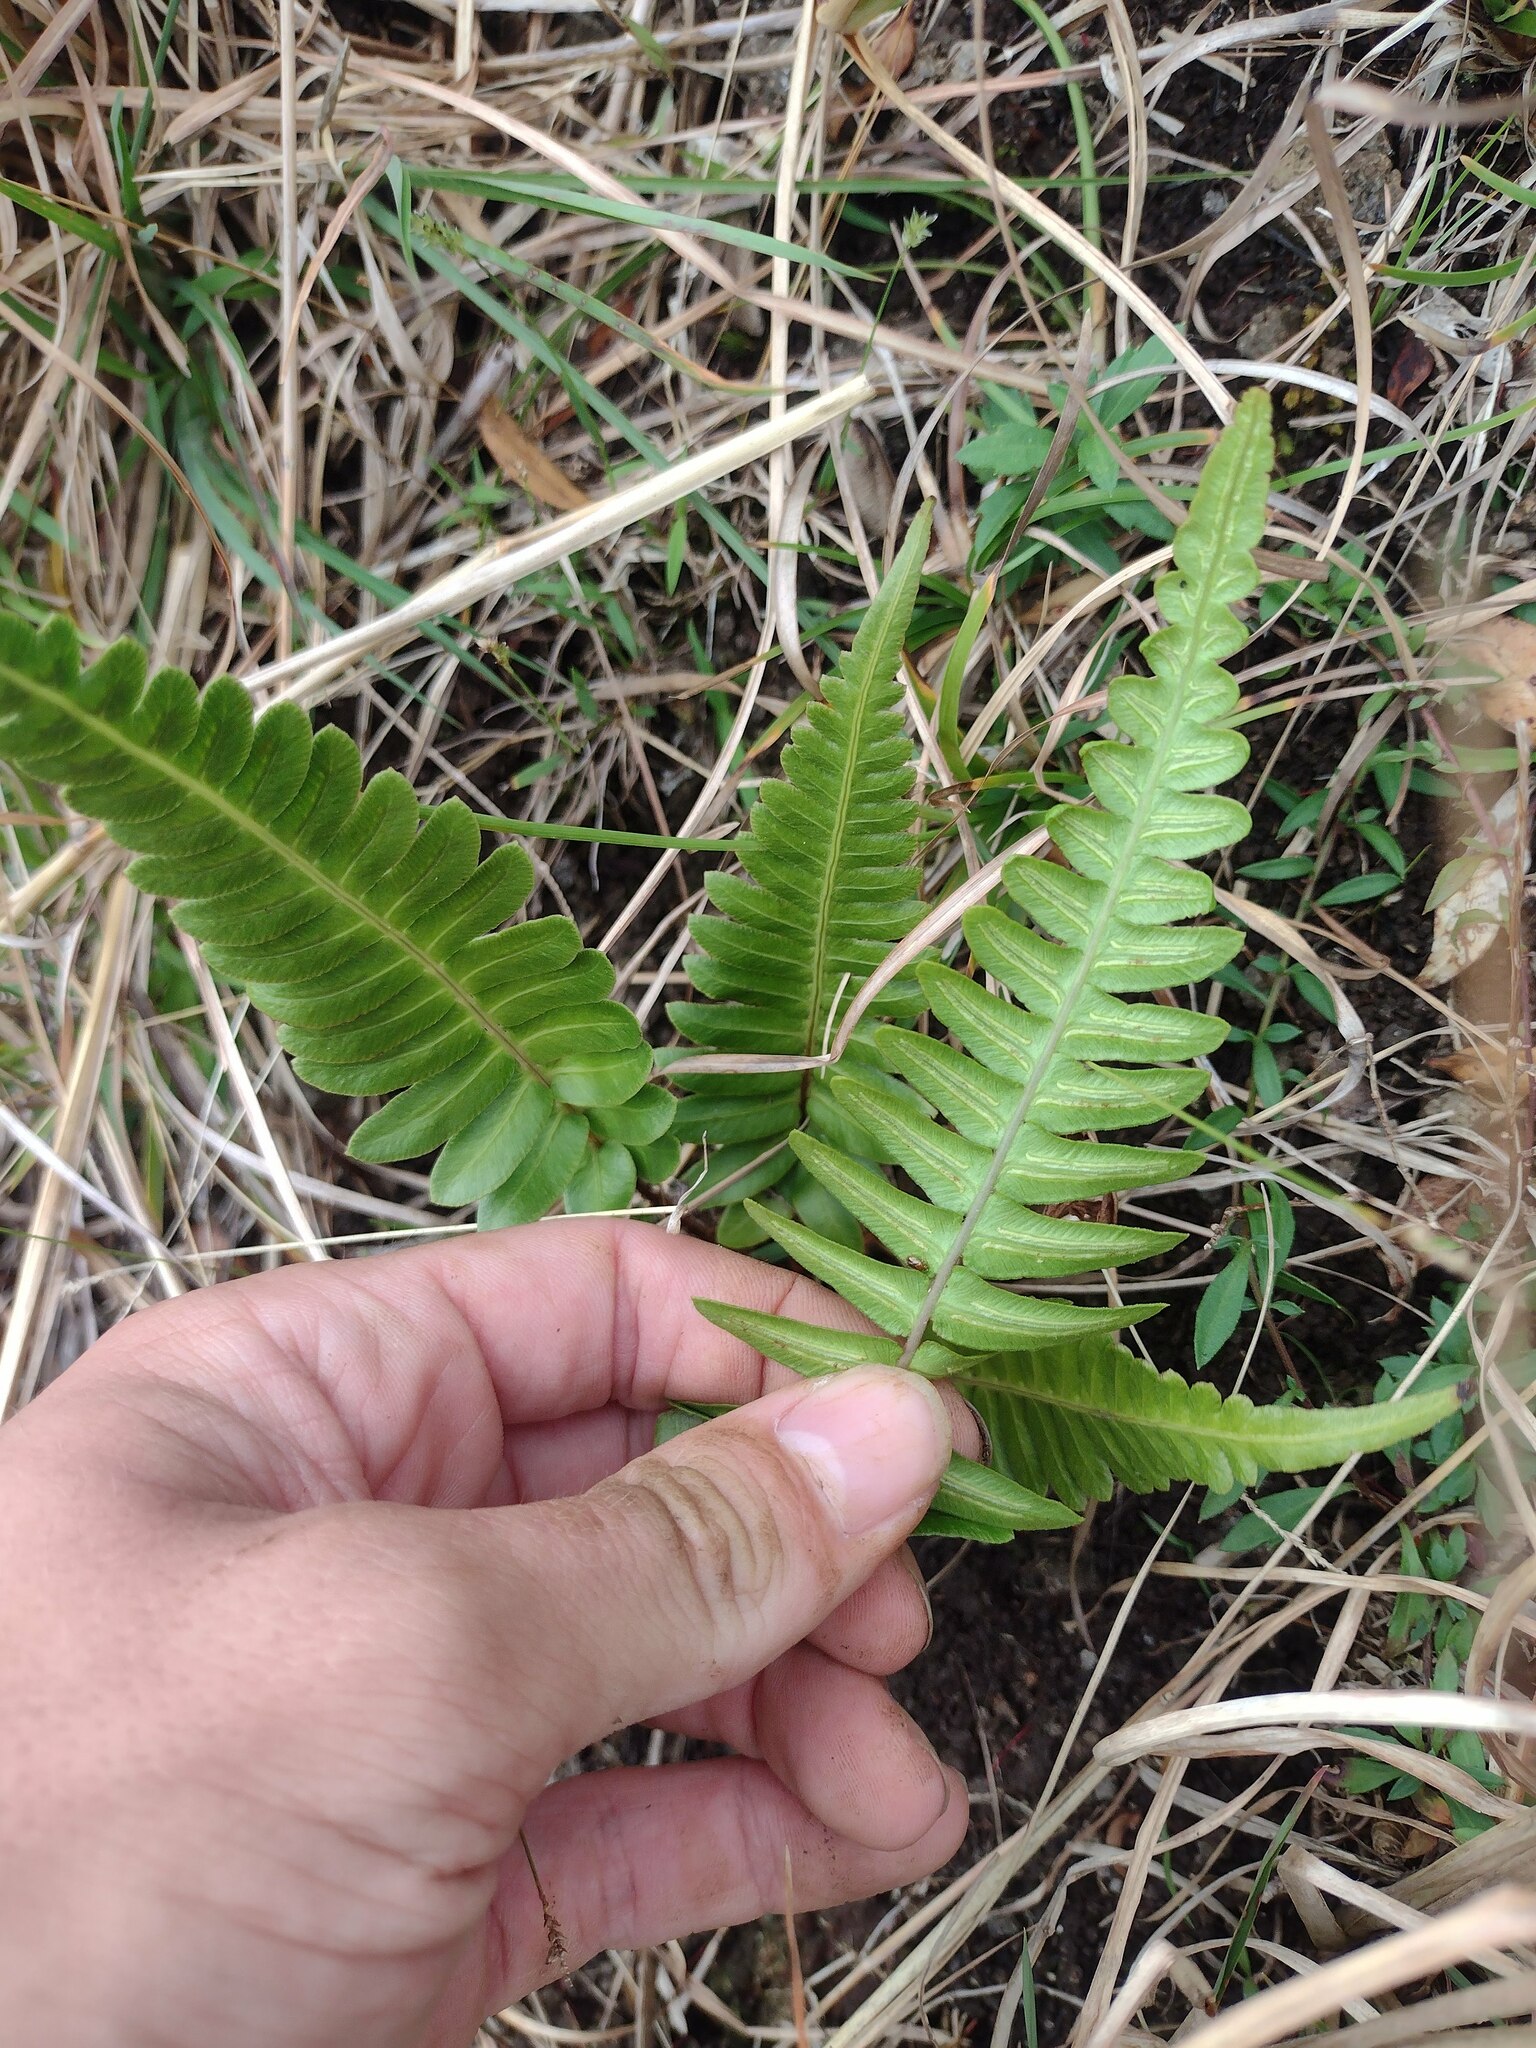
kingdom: Plantae
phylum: Tracheophyta
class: Polypodiopsida
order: Polypodiales
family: Blechnaceae
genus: Blechnum
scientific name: Blechnum appendiculatum
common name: Palm fern
